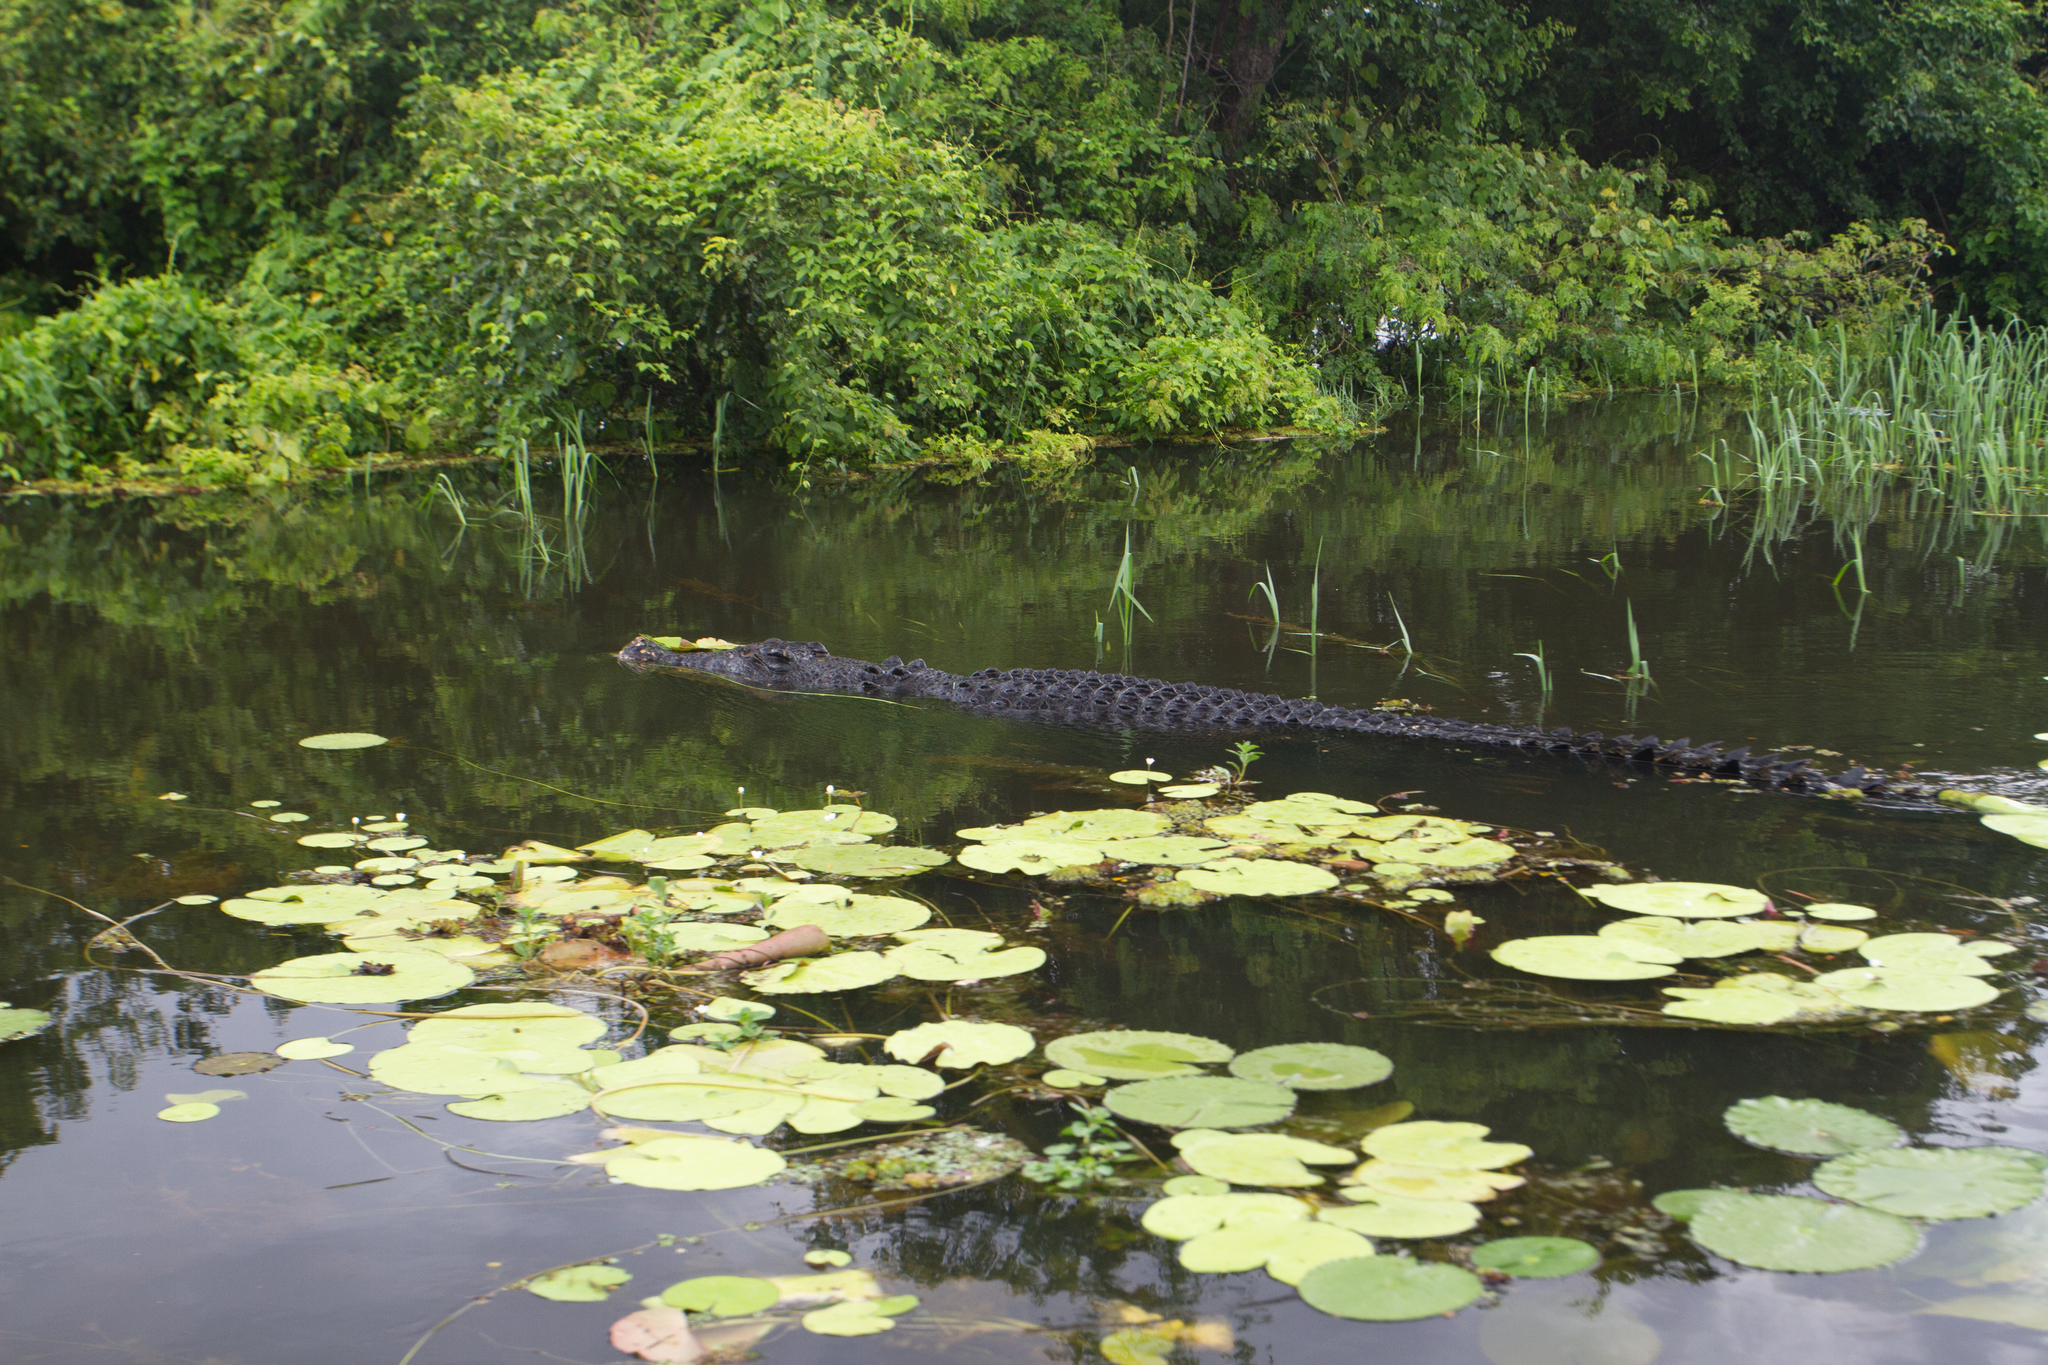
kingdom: Animalia
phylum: Chordata
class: Crocodylia
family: Crocodylidae
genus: Crocodylus
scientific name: Crocodylus porosus
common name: Saltwater crocodile
